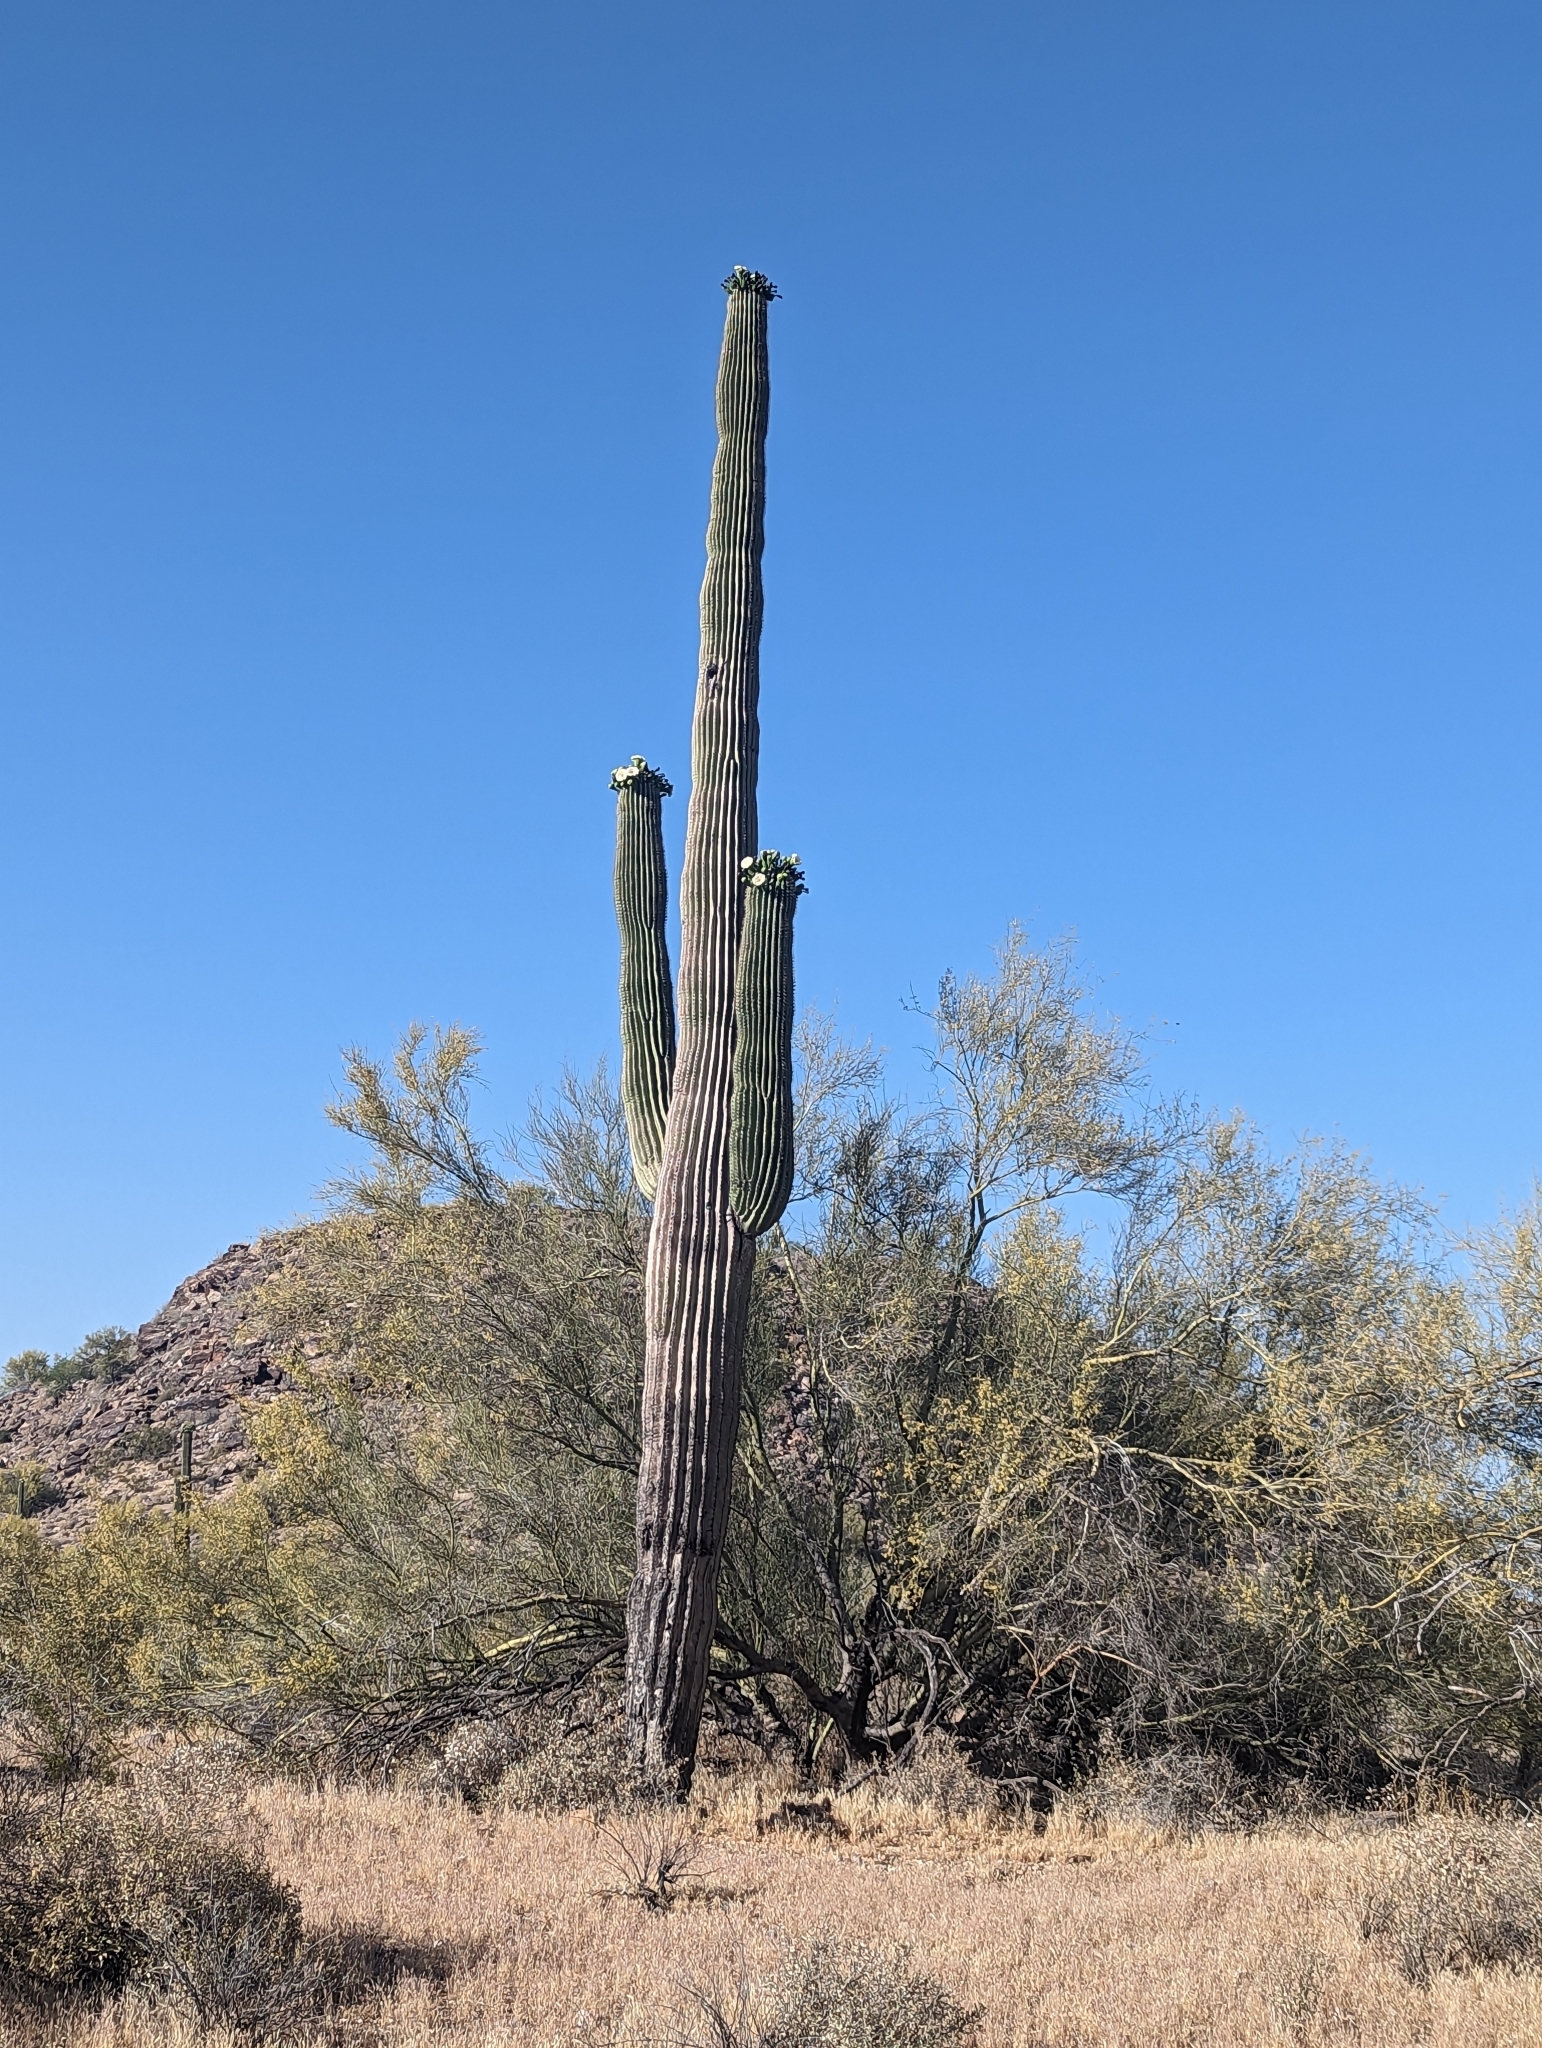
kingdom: Plantae
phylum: Tracheophyta
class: Magnoliopsida
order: Caryophyllales
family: Cactaceae
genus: Carnegiea
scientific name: Carnegiea gigantea
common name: Saguaro
